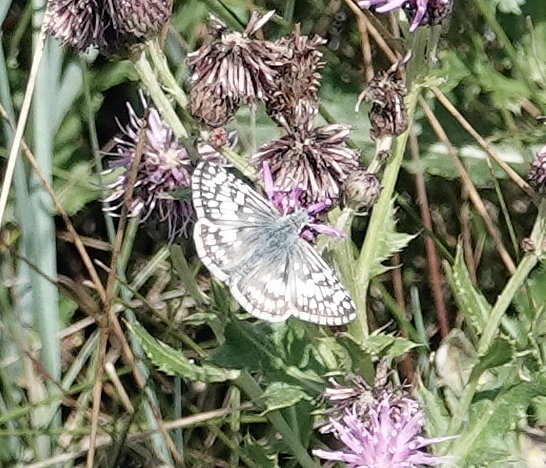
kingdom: Animalia
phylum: Arthropoda
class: Insecta
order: Lepidoptera
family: Hesperiidae
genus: Burnsius
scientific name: Burnsius communis
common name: Common checkered-skipper
